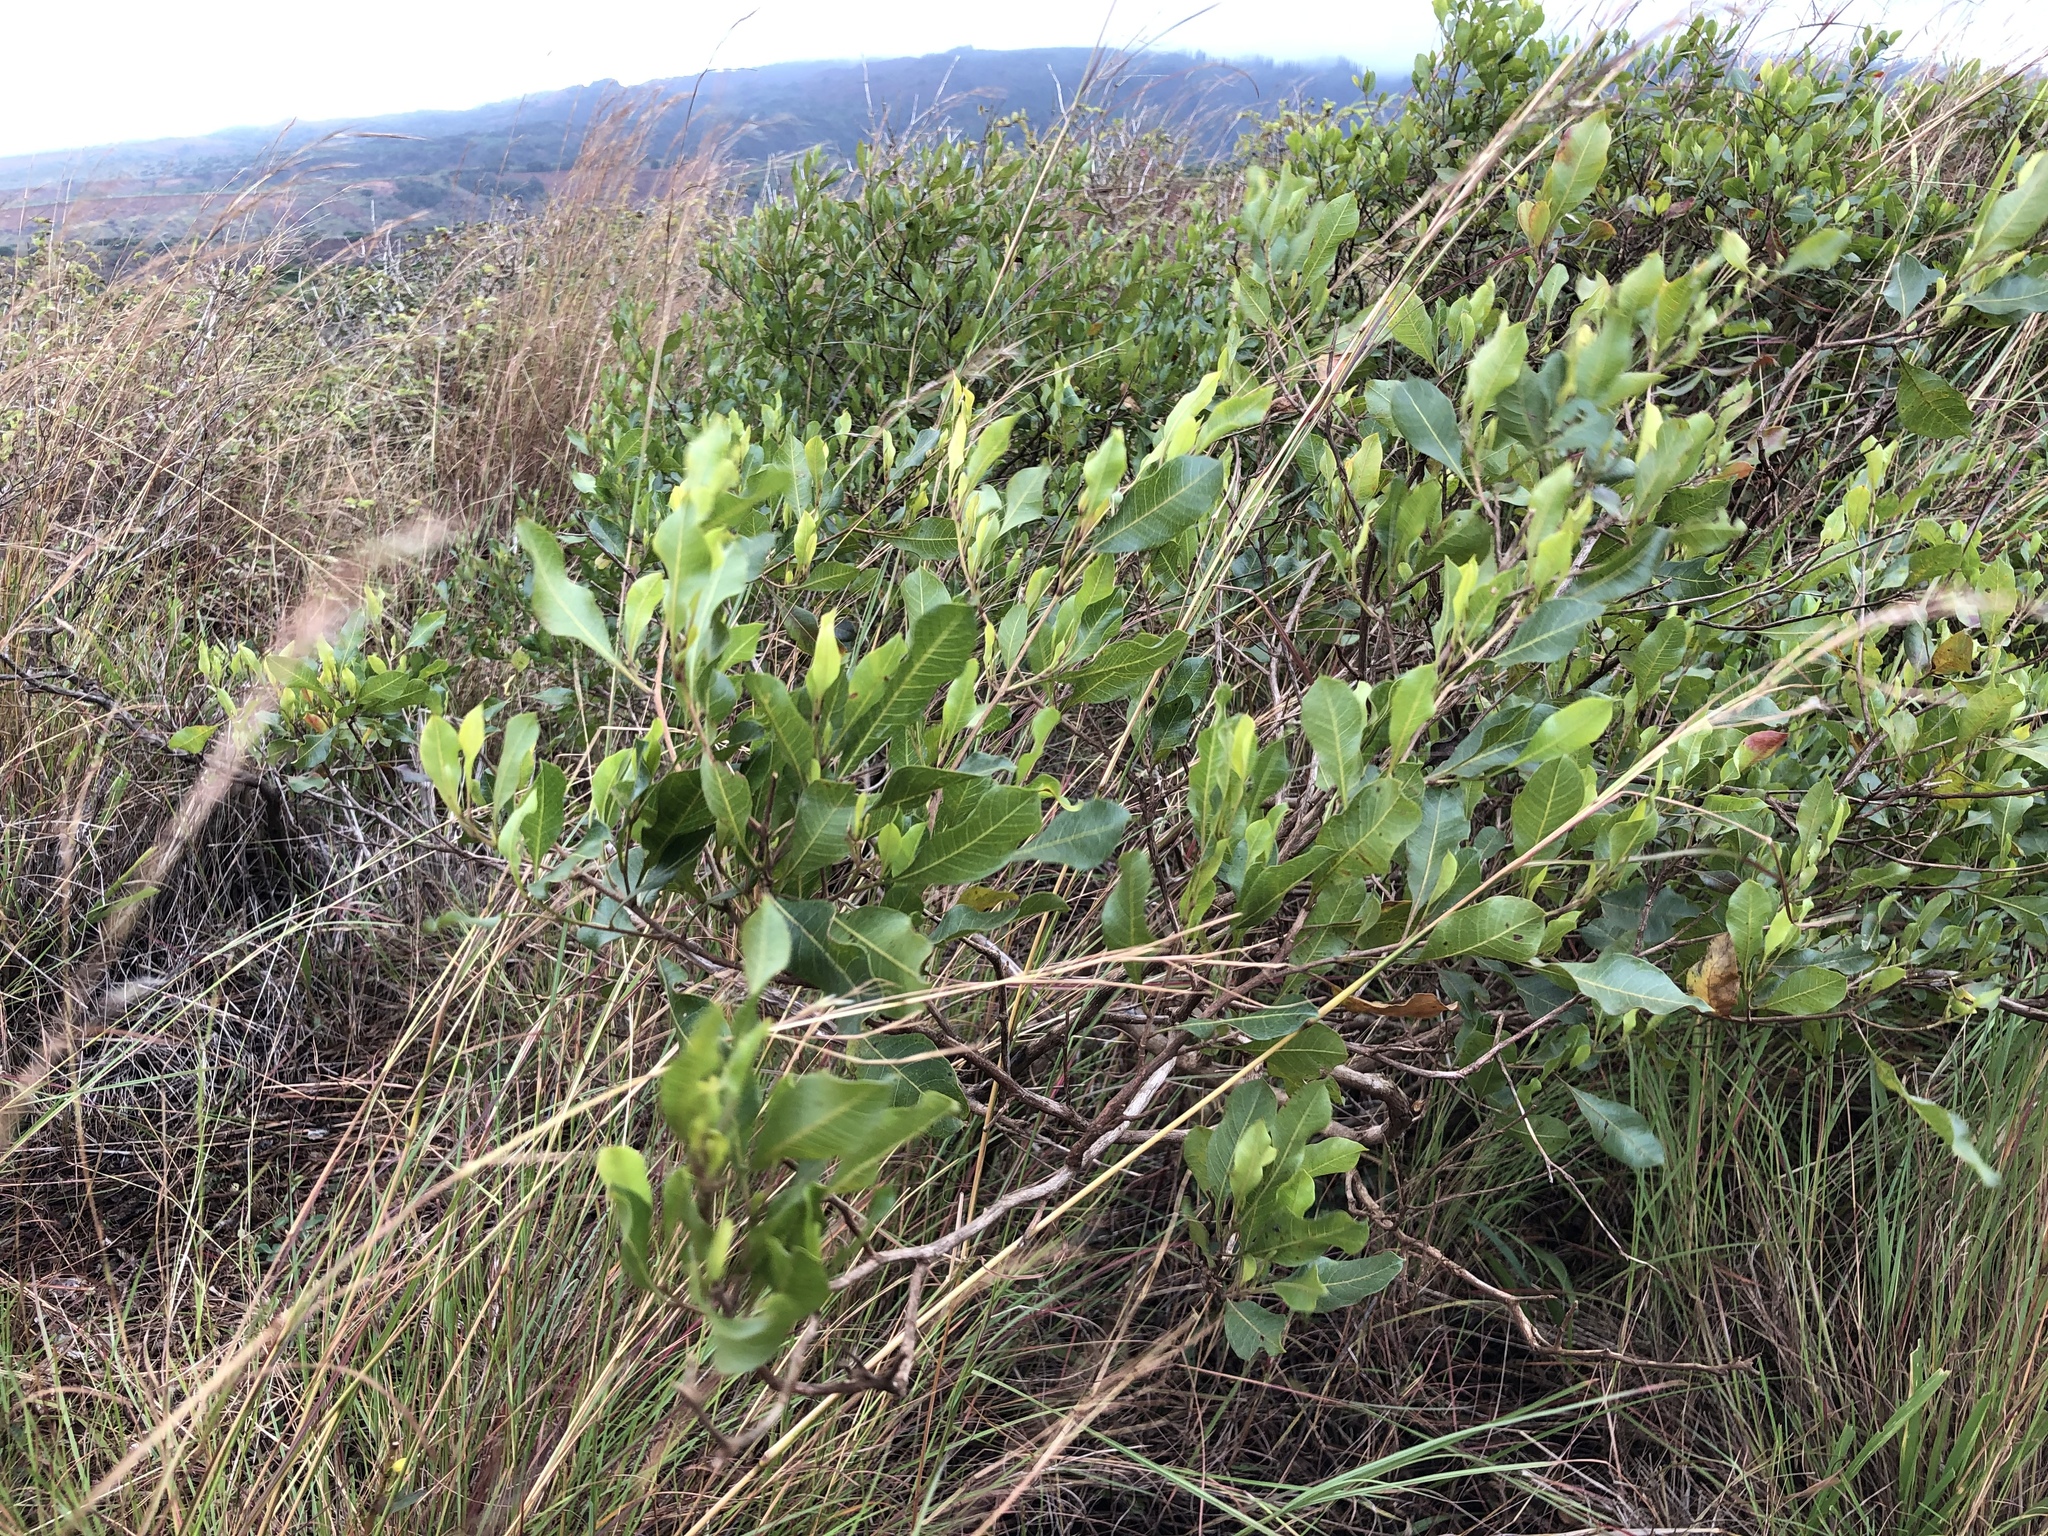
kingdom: Plantae
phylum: Tracheophyta
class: Magnoliopsida
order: Sapindales
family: Sapindaceae
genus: Dodonaea
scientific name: Dodonaea viscosa
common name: Hopbush
